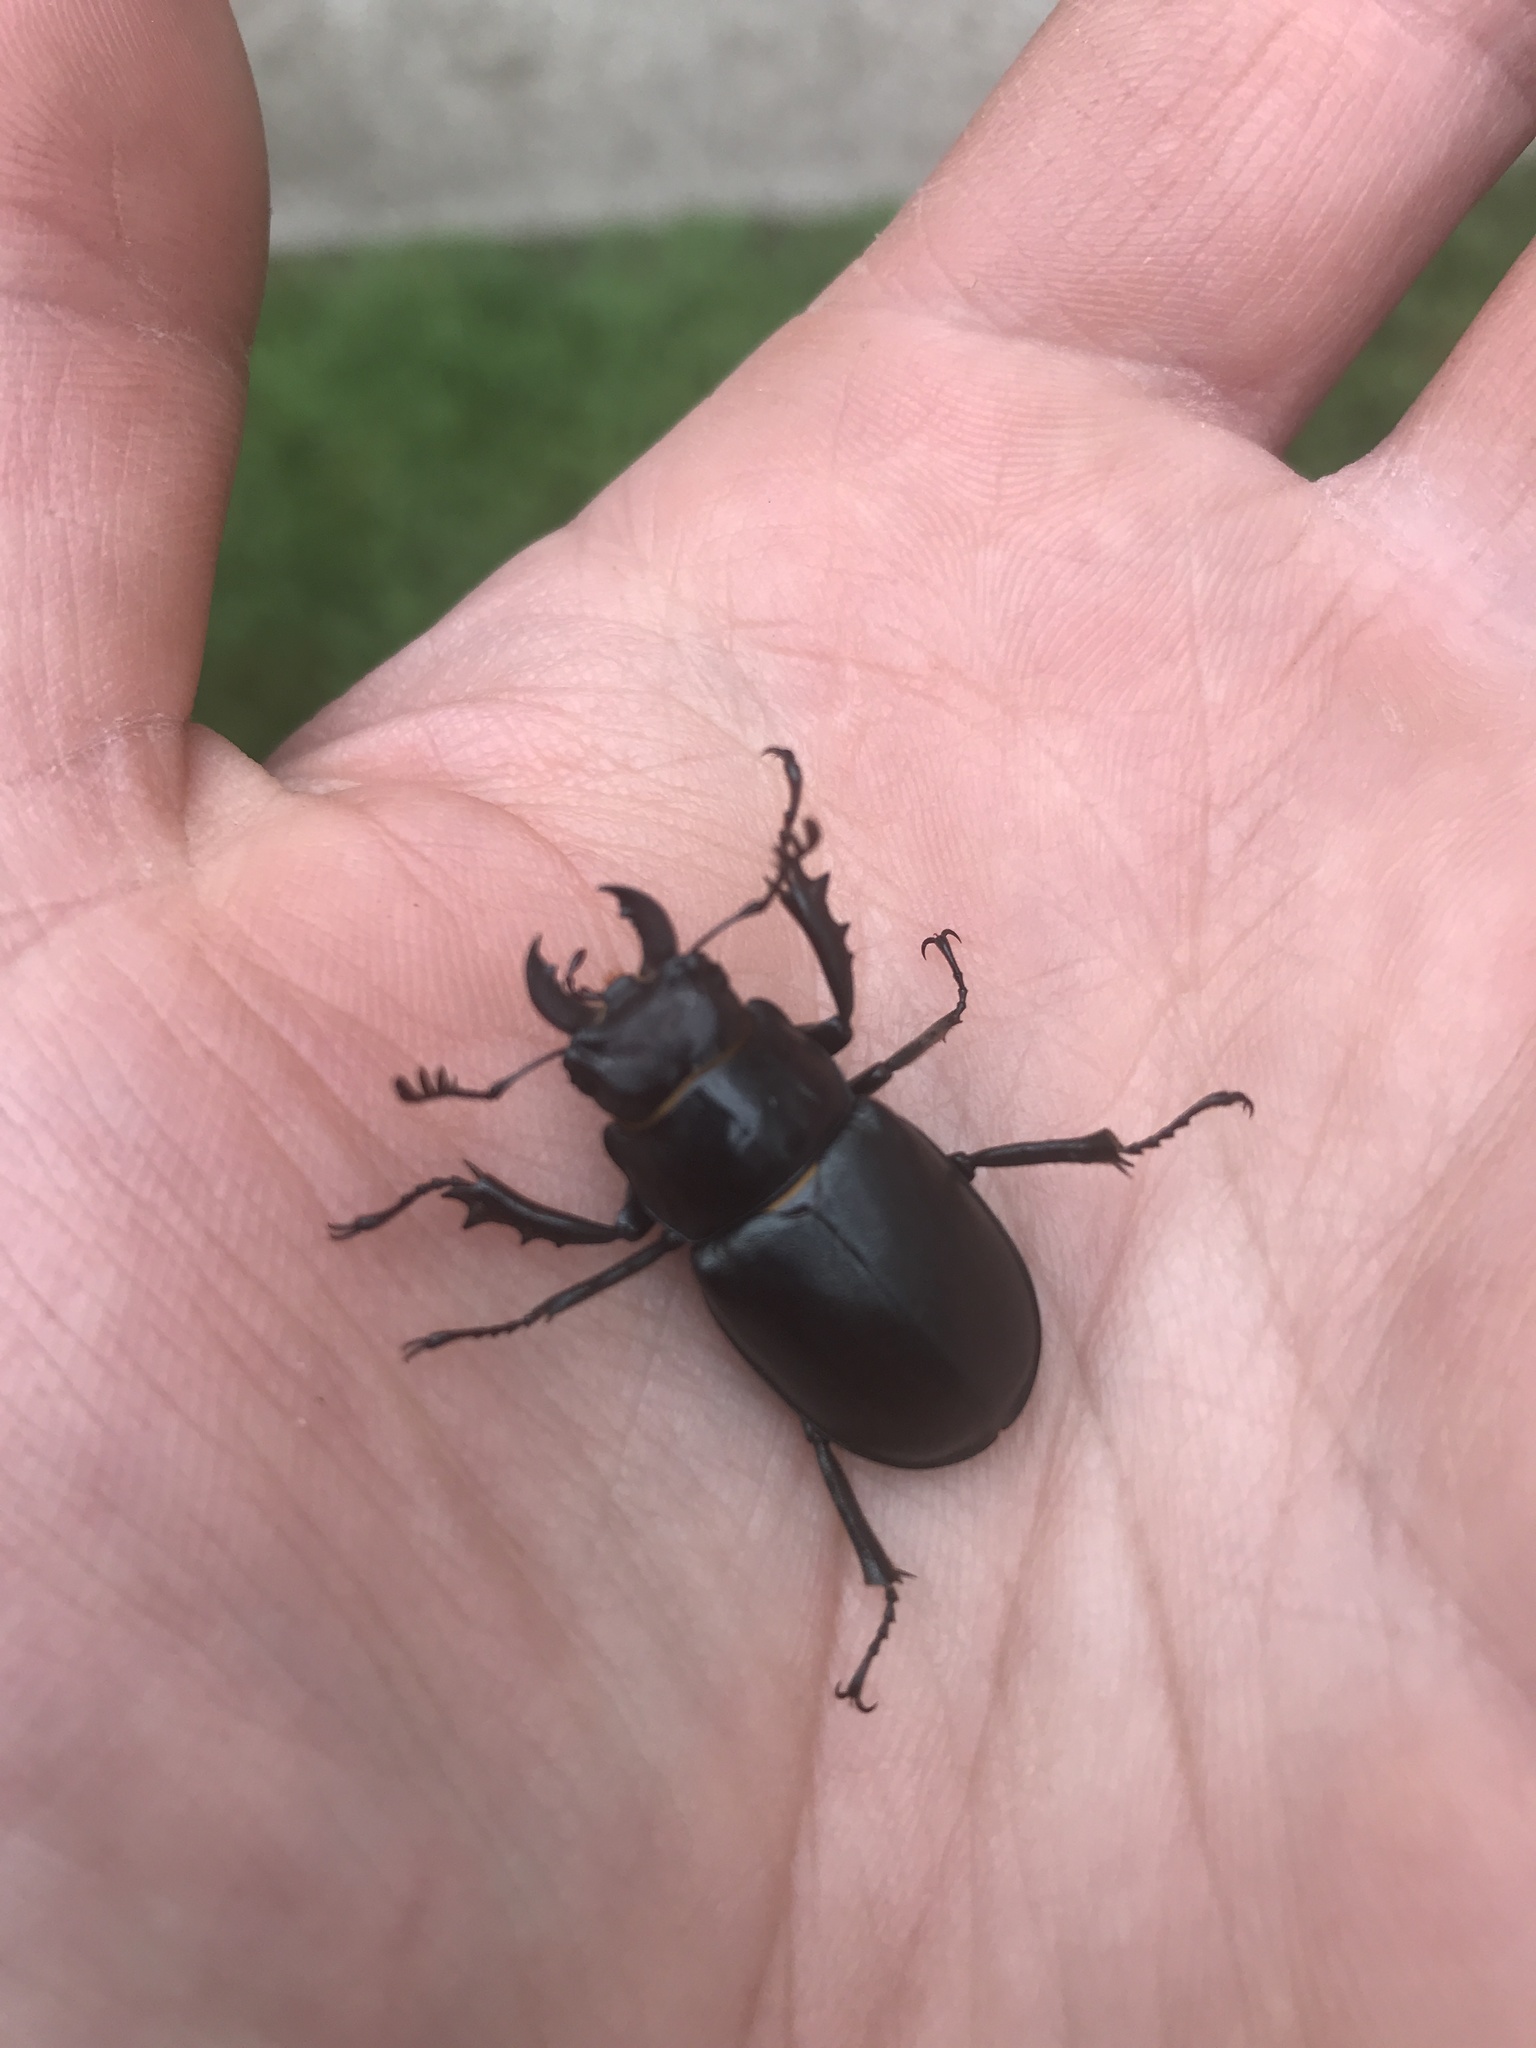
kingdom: Animalia
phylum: Arthropoda
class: Insecta
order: Coleoptera
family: Lucanidae
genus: Lucanus
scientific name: Lucanus placidus
